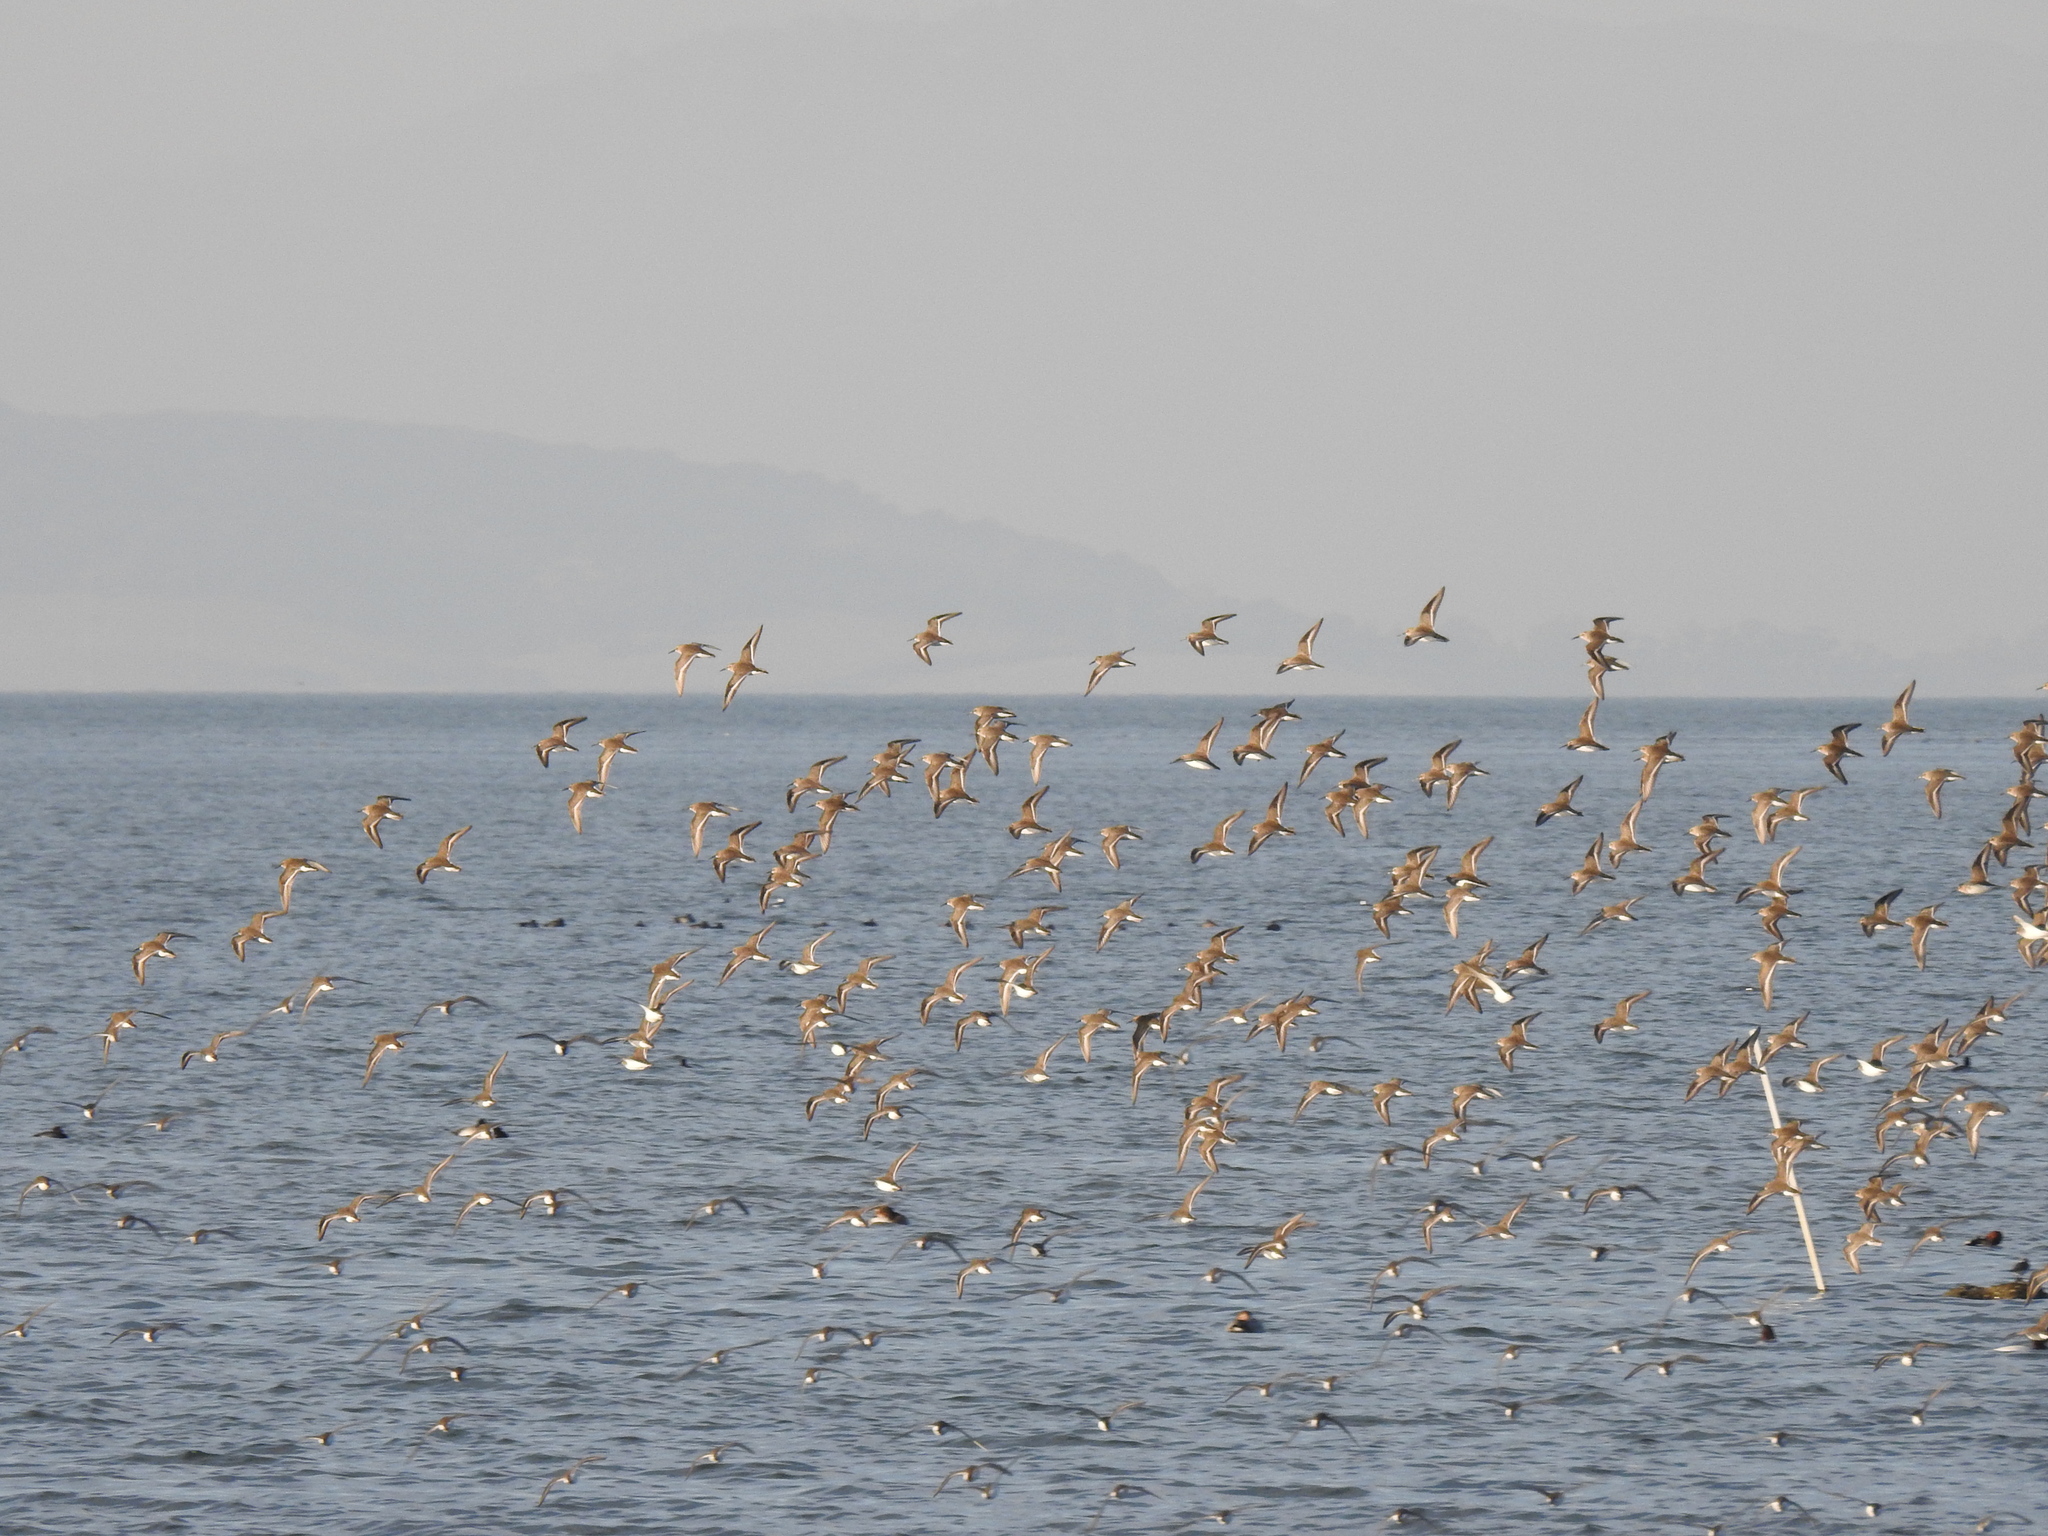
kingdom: Animalia
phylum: Chordata
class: Aves
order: Charadriiformes
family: Scolopacidae
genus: Calidris
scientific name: Calidris alpina
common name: Dunlin
